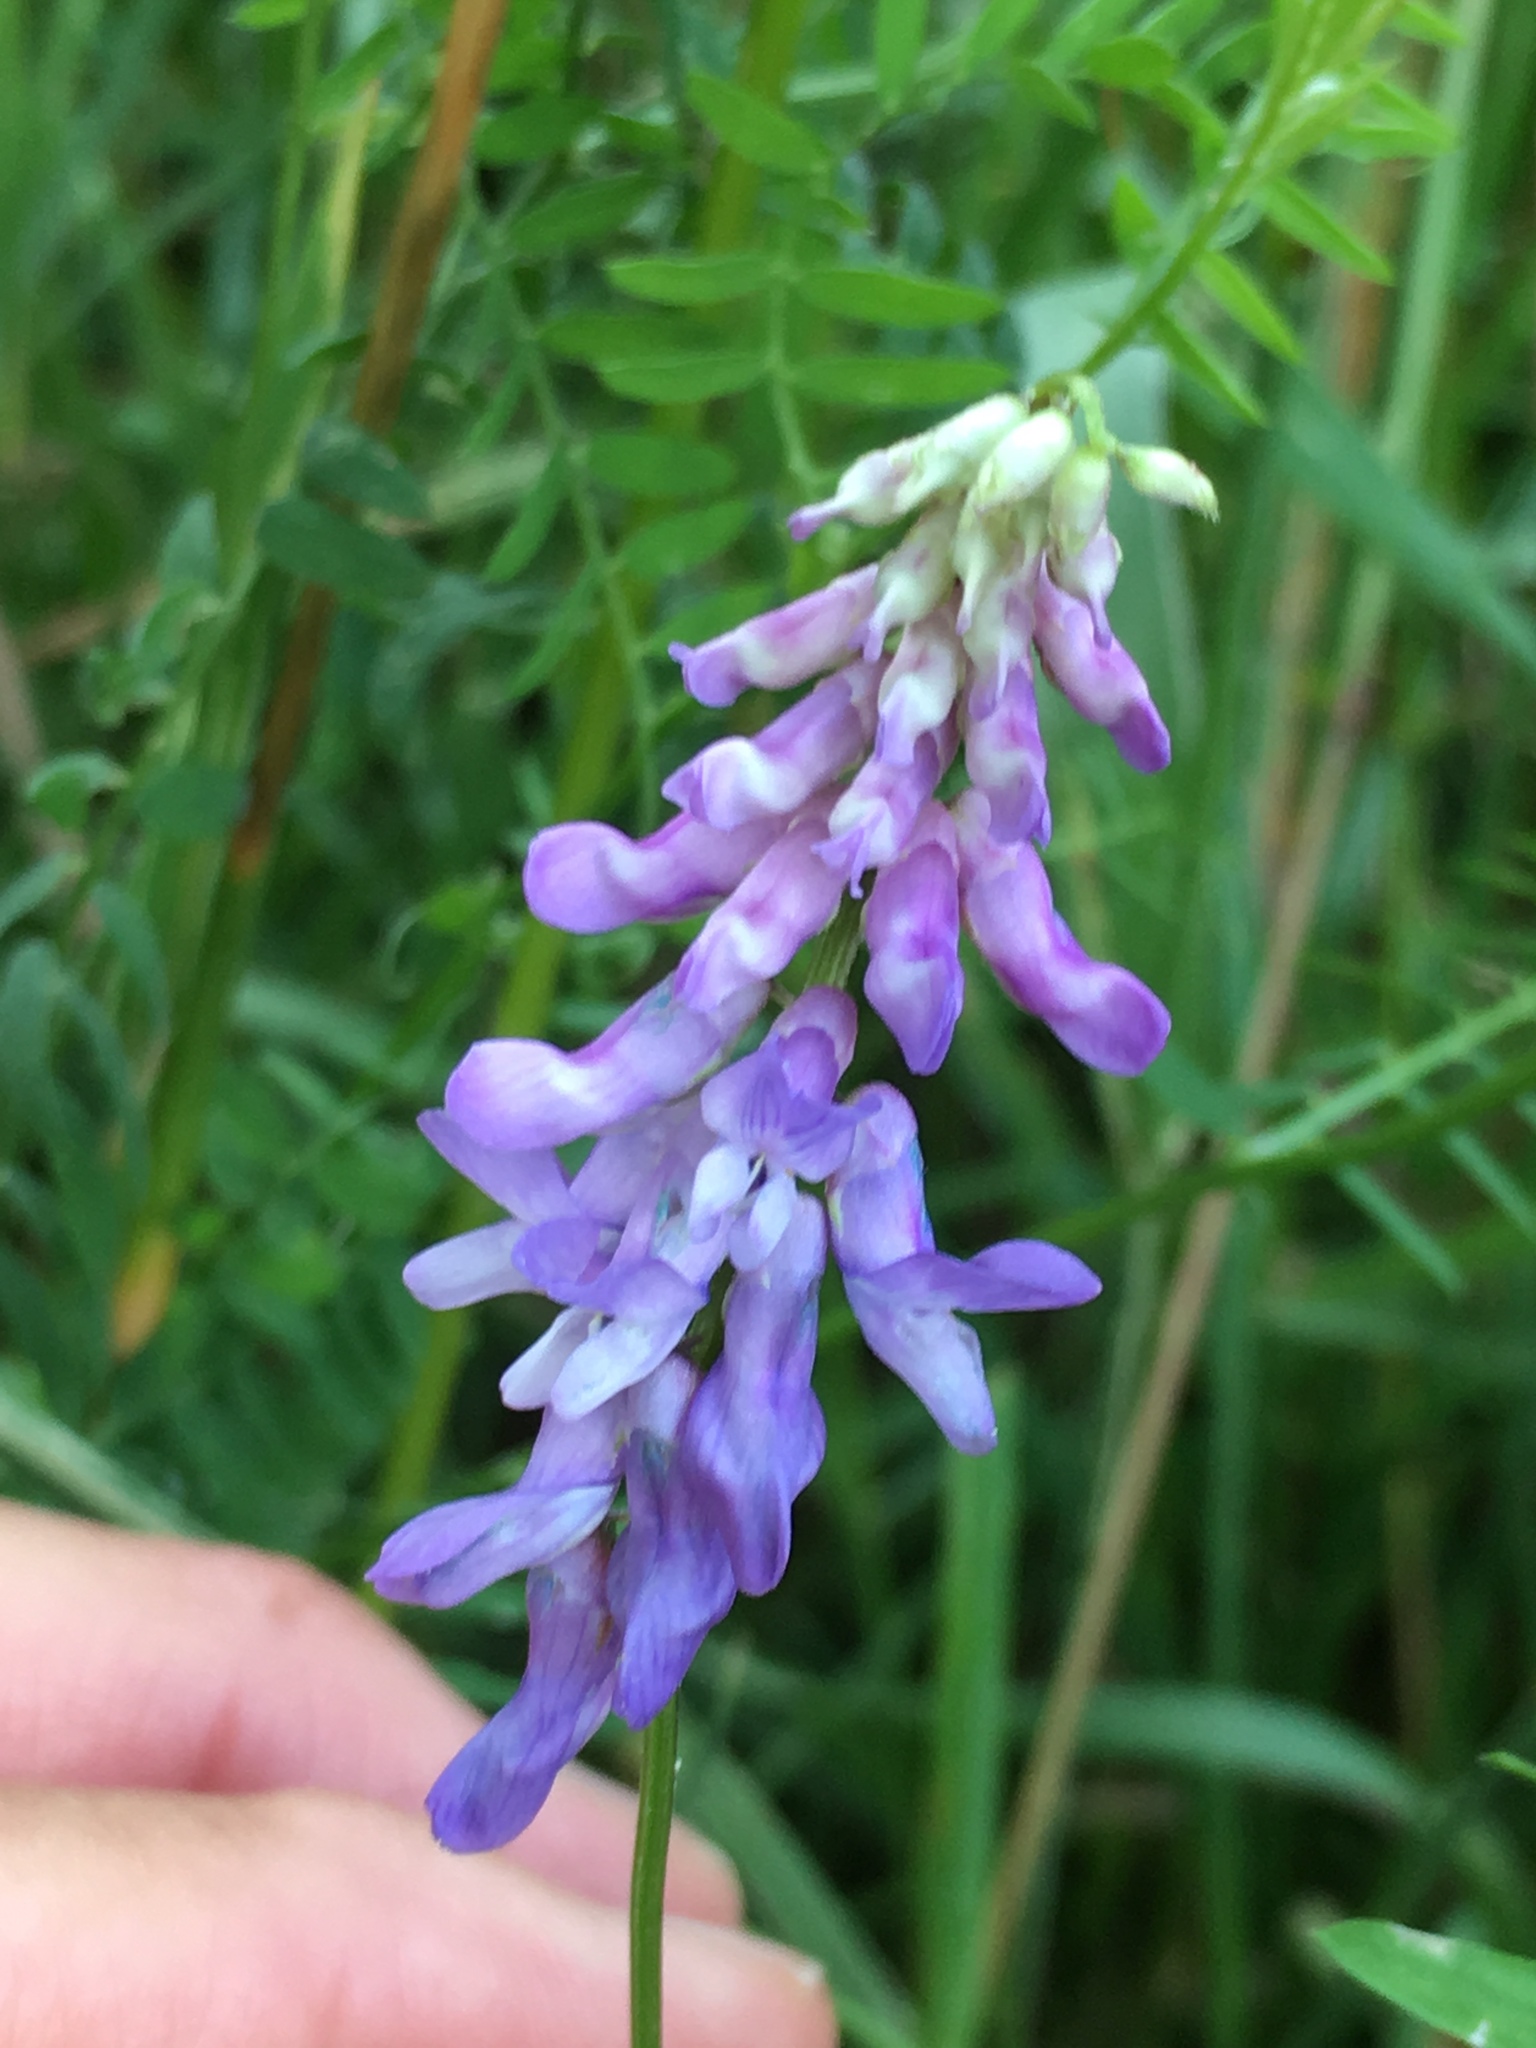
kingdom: Plantae
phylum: Tracheophyta
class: Magnoliopsida
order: Fabales
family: Fabaceae
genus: Vicia
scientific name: Vicia cracca
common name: Bird vetch
